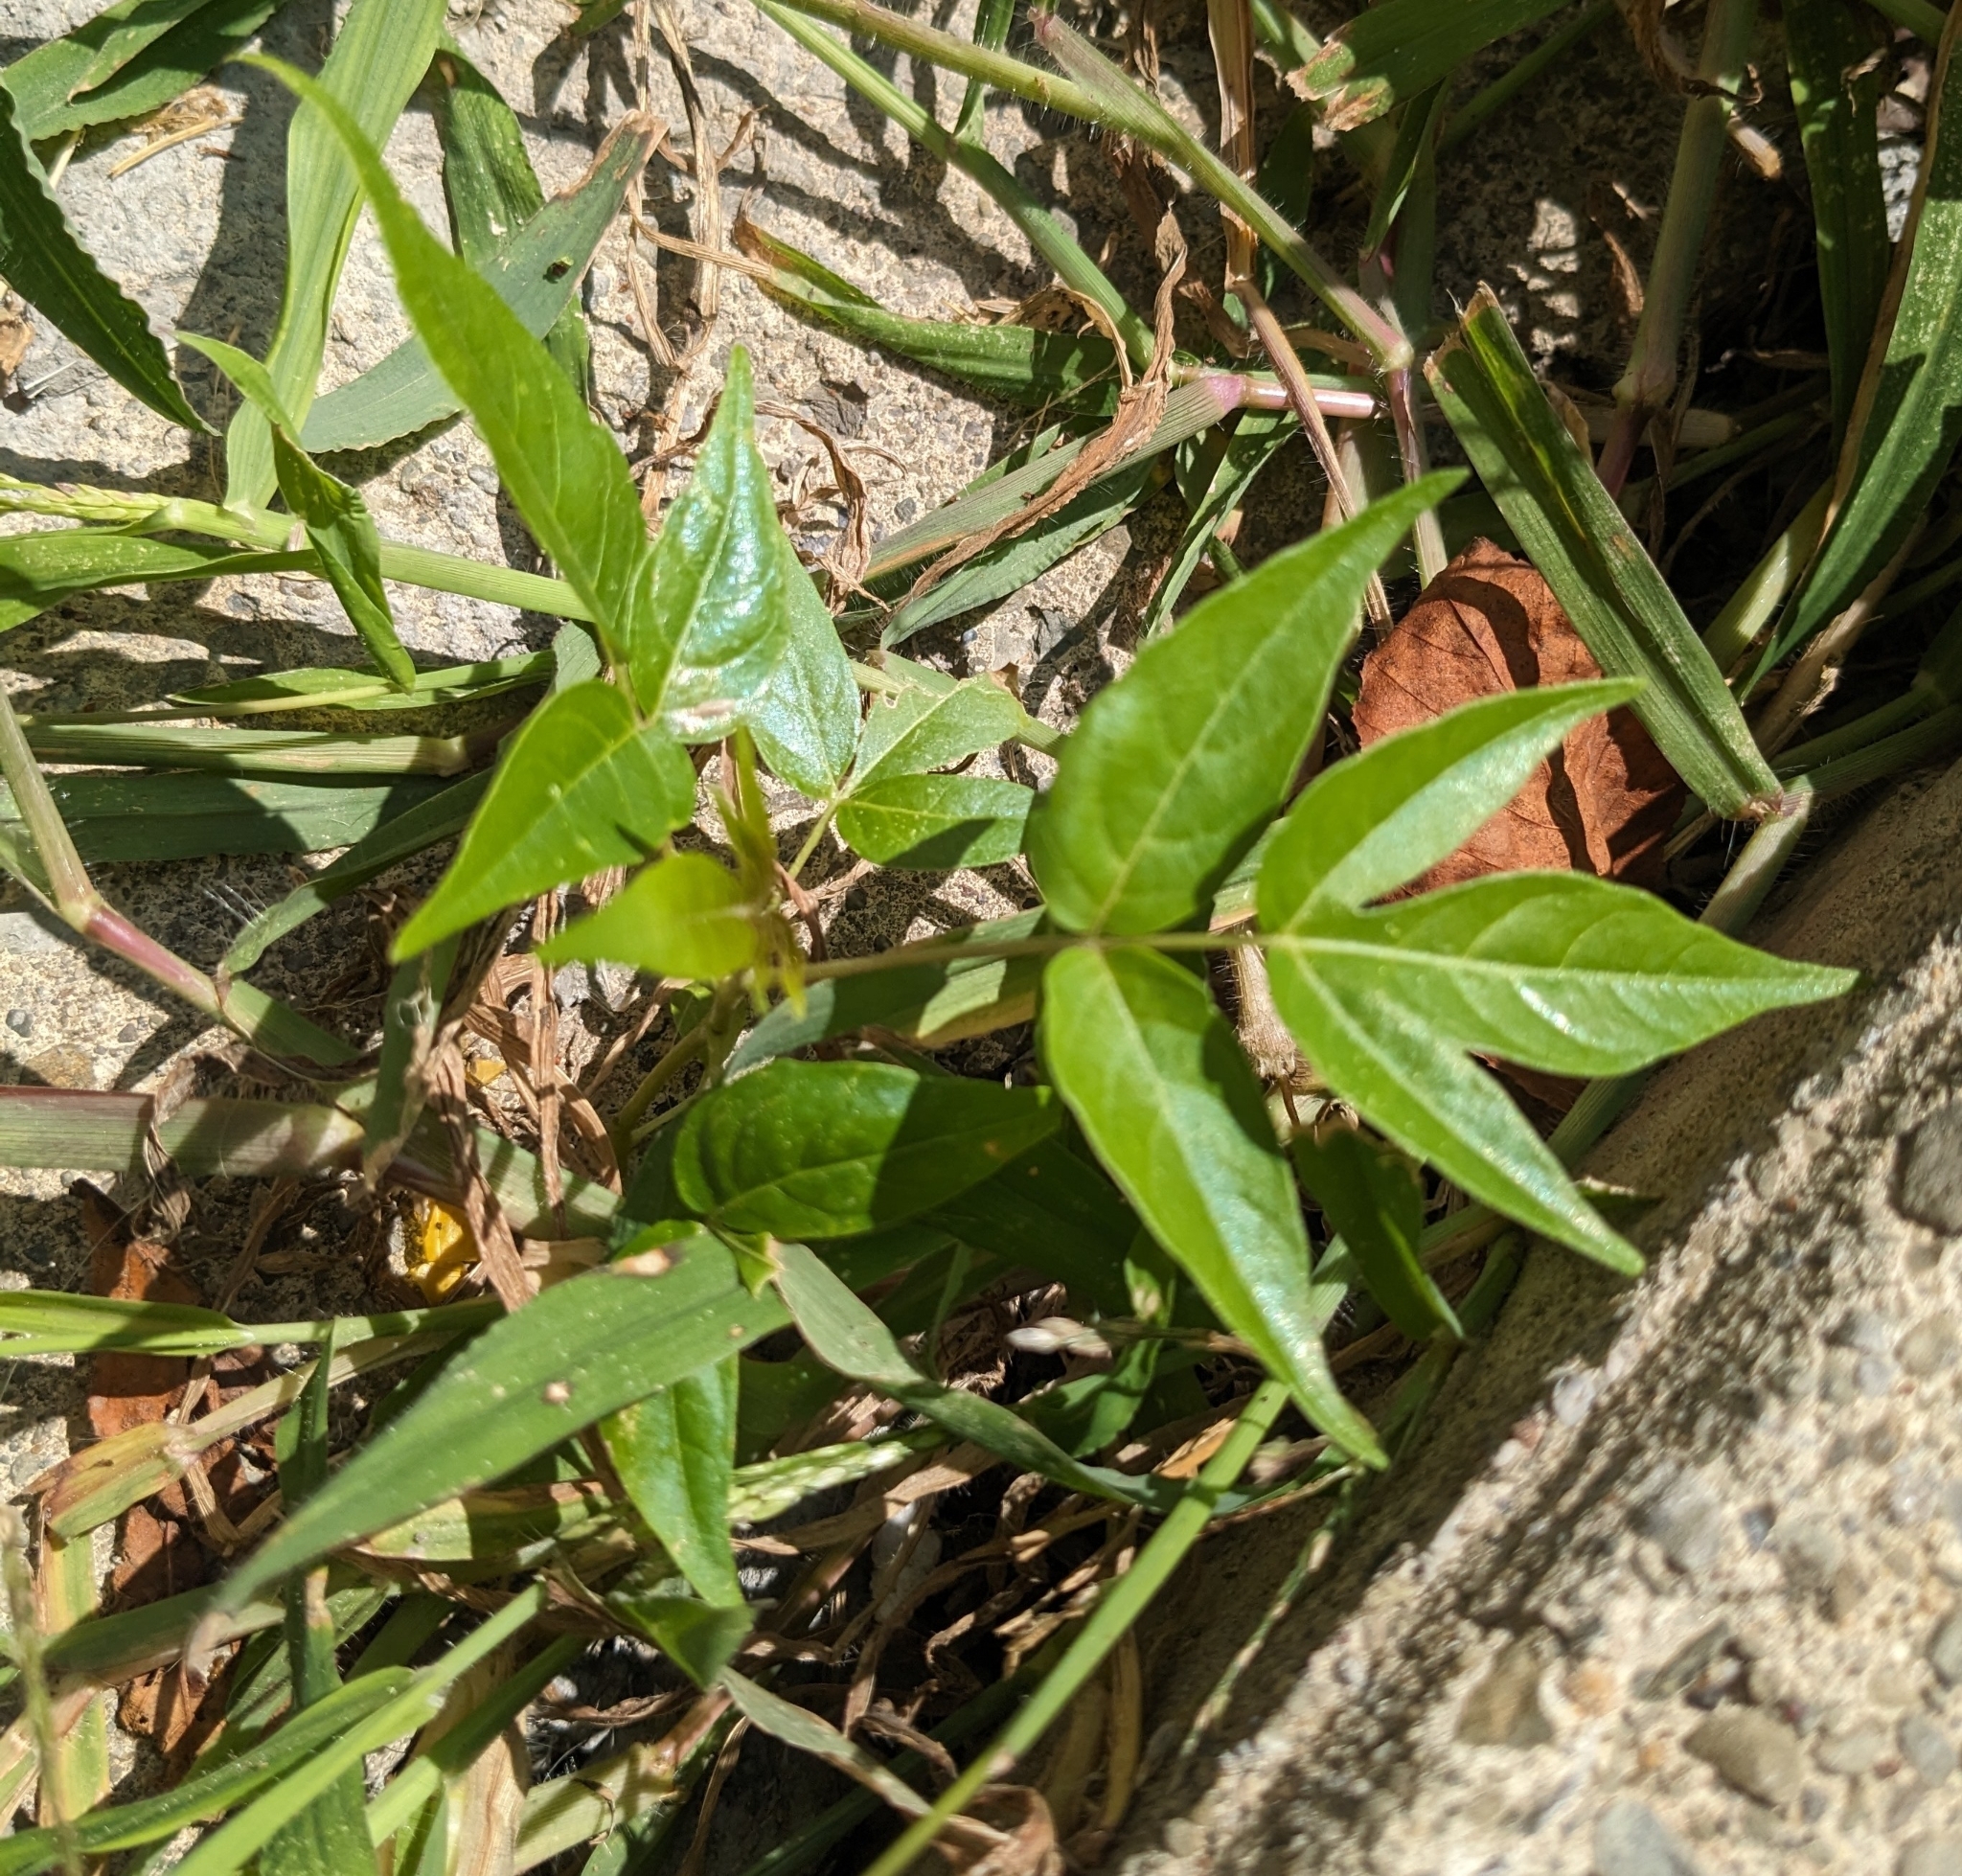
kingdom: Plantae
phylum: Tracheophyta
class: Magnoliopsida
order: Sapindales
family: Simaroubaceae
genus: Ailanthus
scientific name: Ailanthus altissima
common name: Tree-of-heaven
